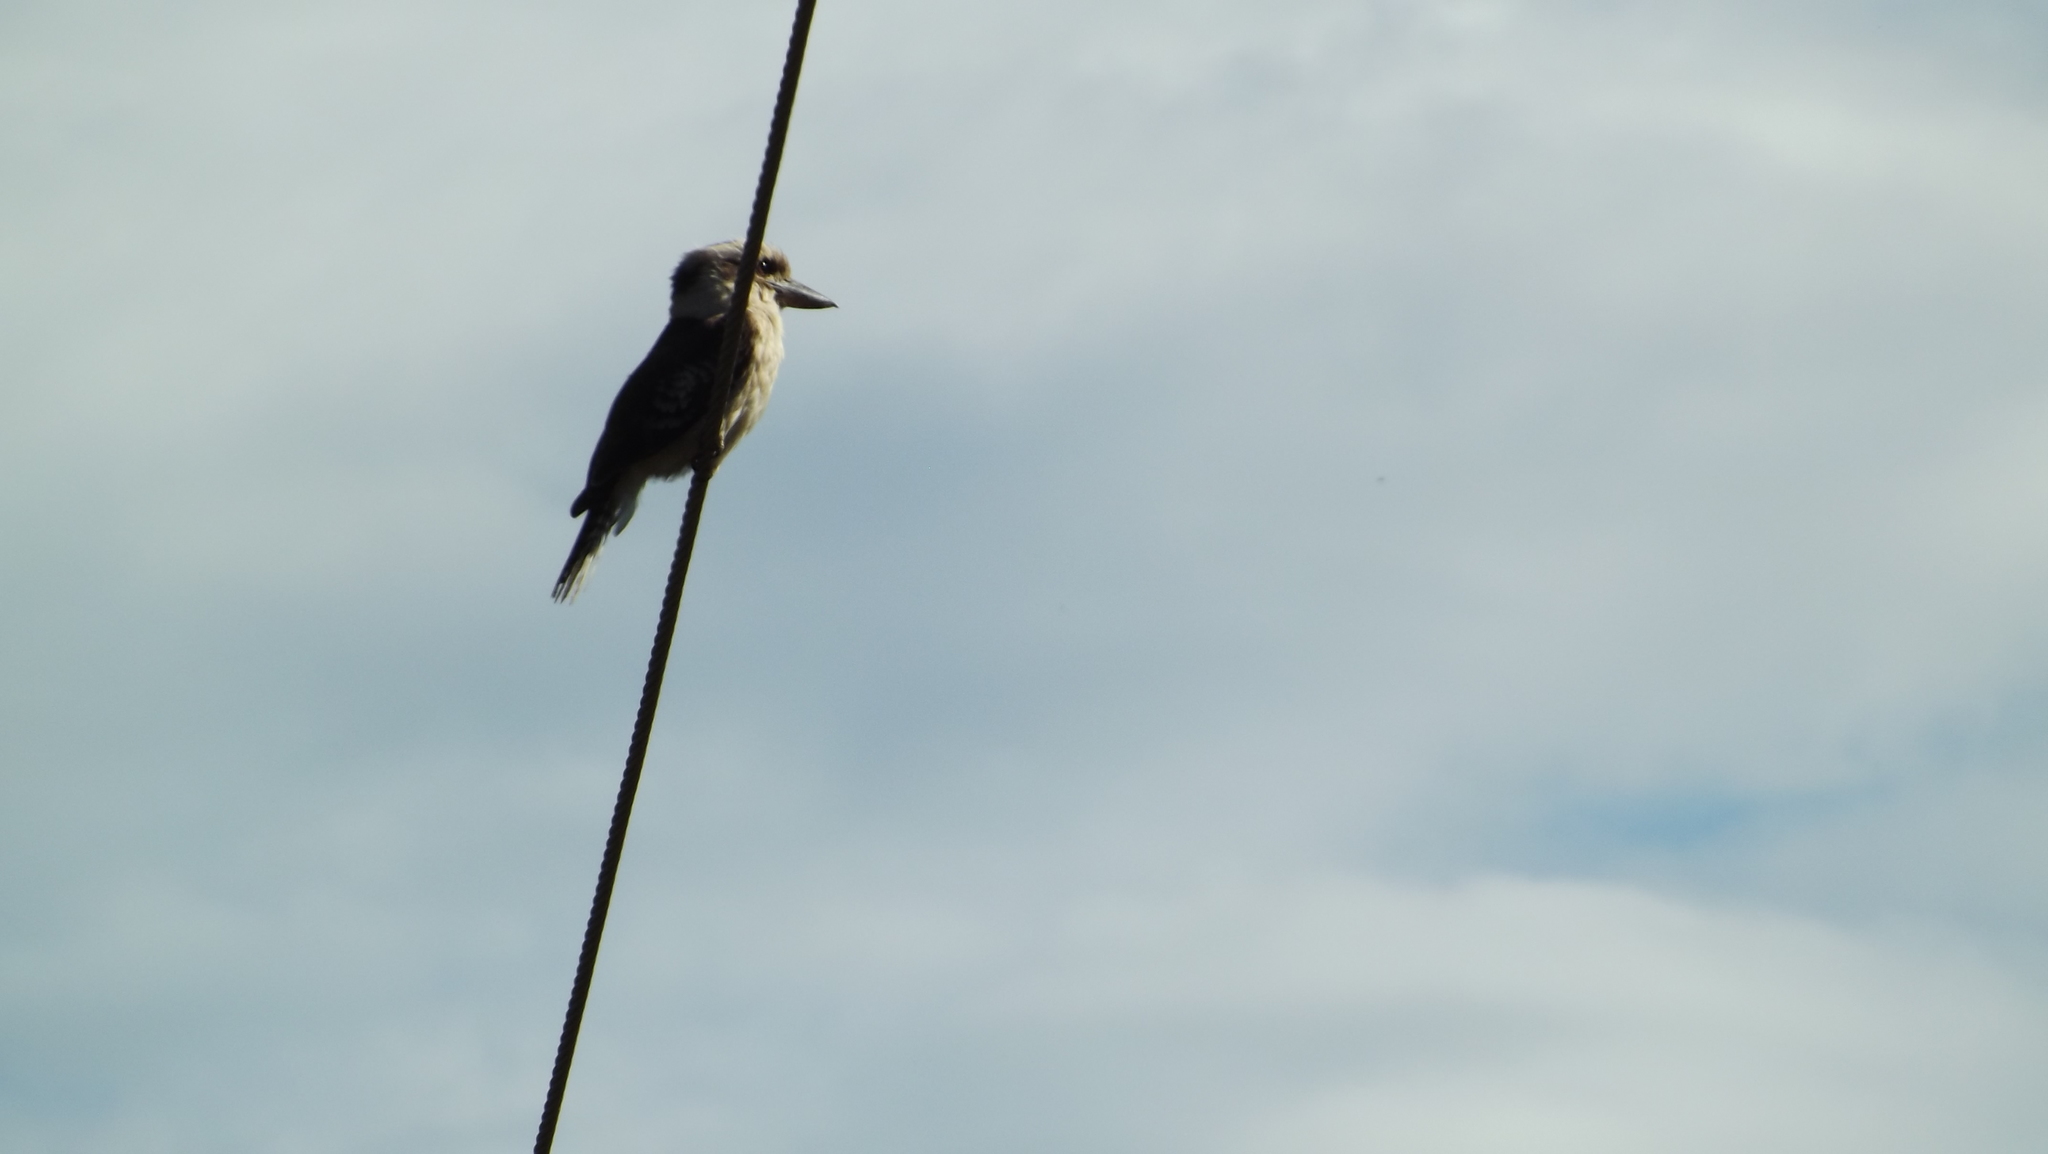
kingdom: Animalia
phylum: Chordata
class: Aves
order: Coraciiformes
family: Alcedinidae
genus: Dacelo
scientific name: Dacelo novaeguineae
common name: Laughing kookaburra
